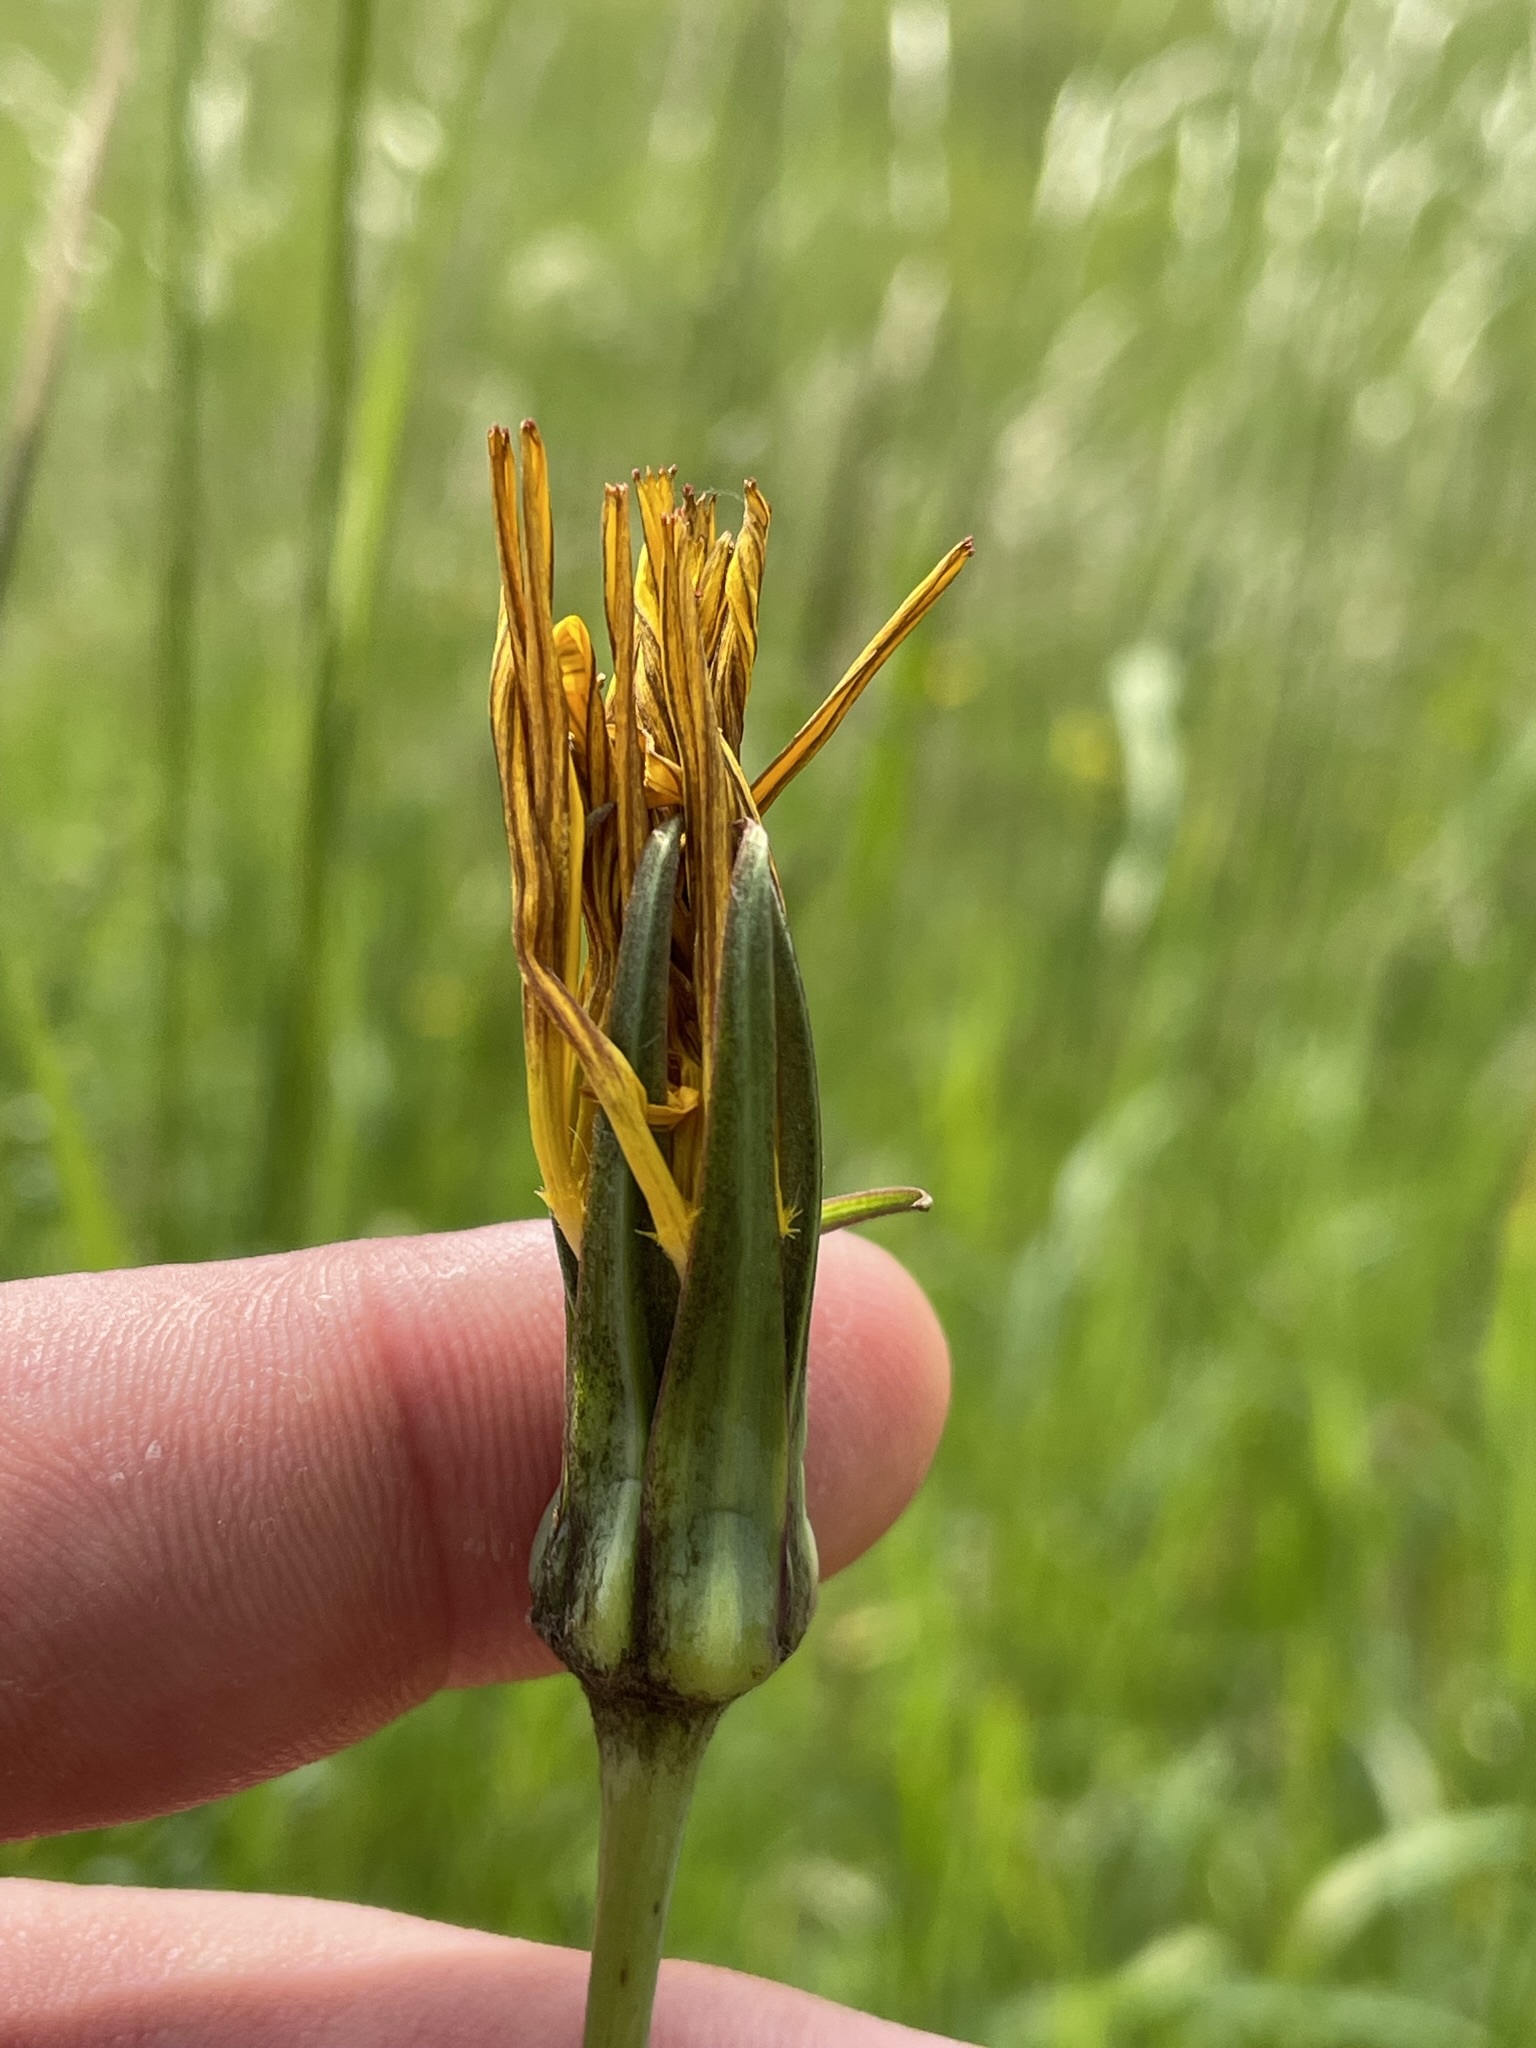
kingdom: Plantae
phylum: Tracheophyta
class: Magnoliopsida
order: Asterales
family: Asteraceae
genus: Tragopogon
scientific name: Tragopogon orientalis
